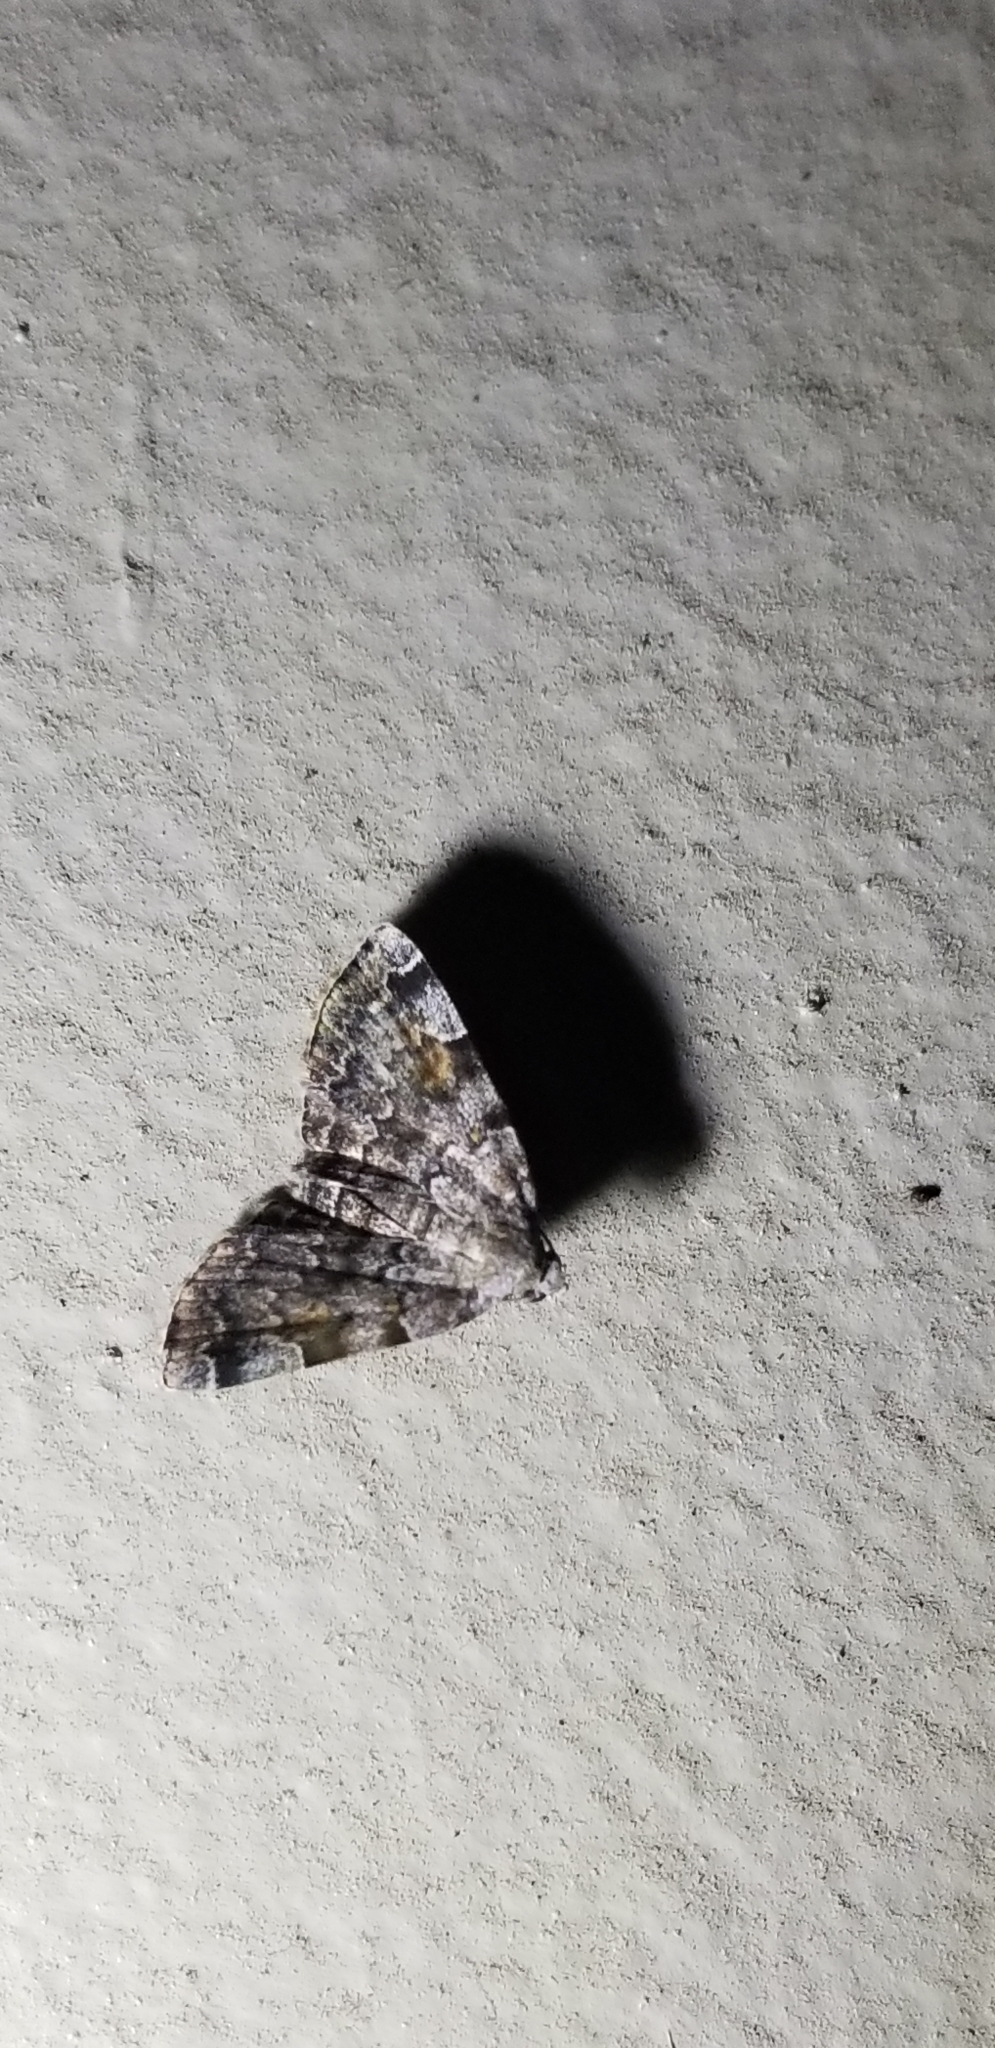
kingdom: Animalia
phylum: Arthropoda
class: Insecta
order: Lepidoptera
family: Erebidae
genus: Idia
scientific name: Idia americalis
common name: American idia moth
